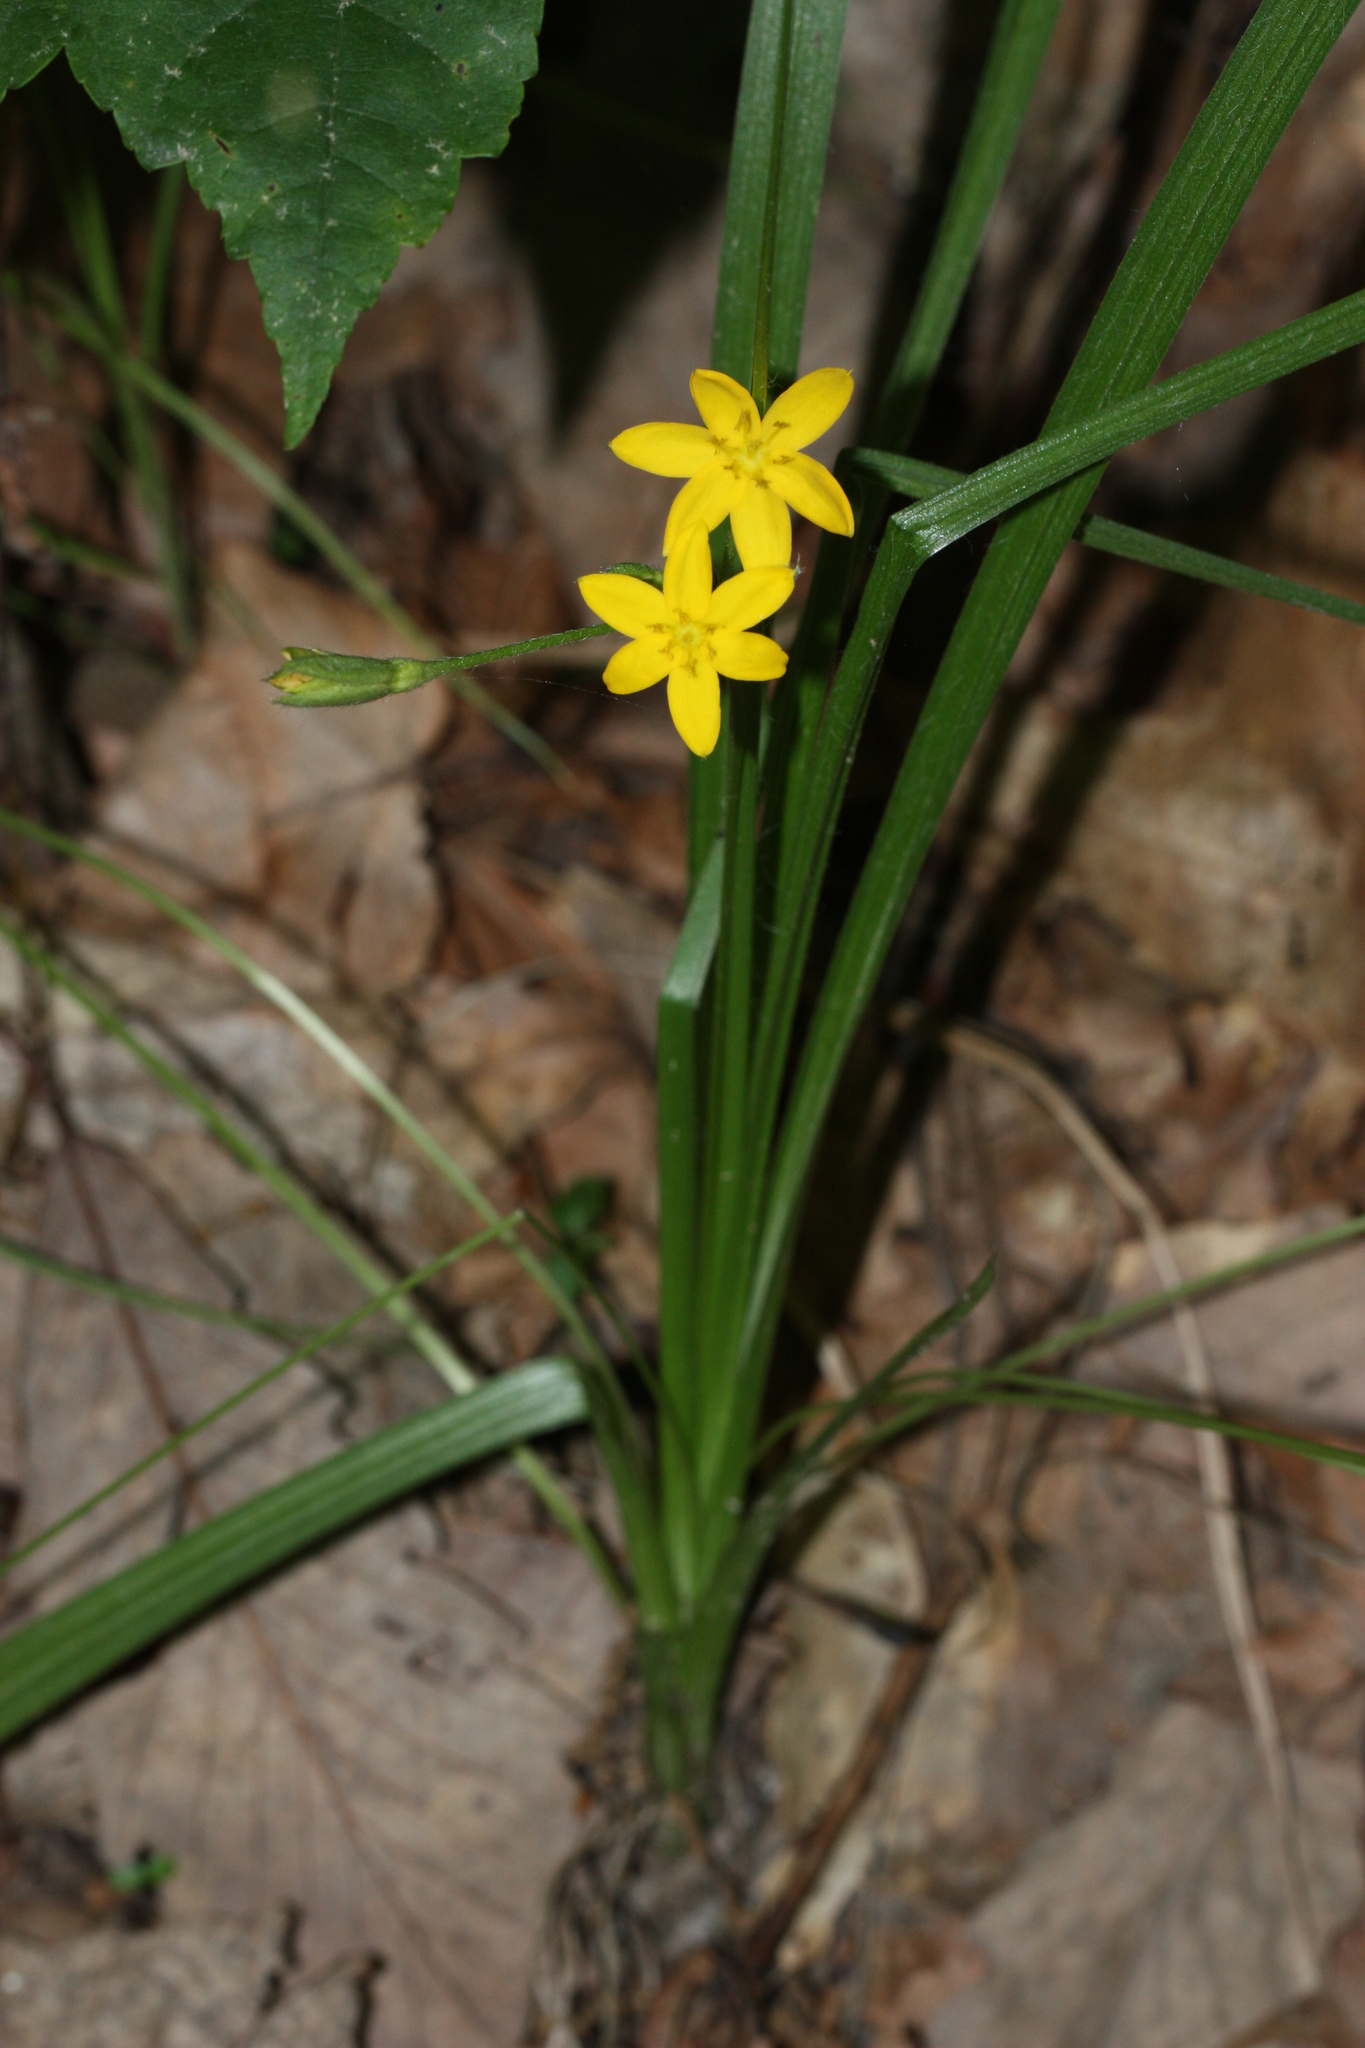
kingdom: Plantae
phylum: Tracheophyta
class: Liliopsida
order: Asparagales
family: Hypoxidaceae
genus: Hypoxis
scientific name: Hypoxis hirsuta
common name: Common goldstar
